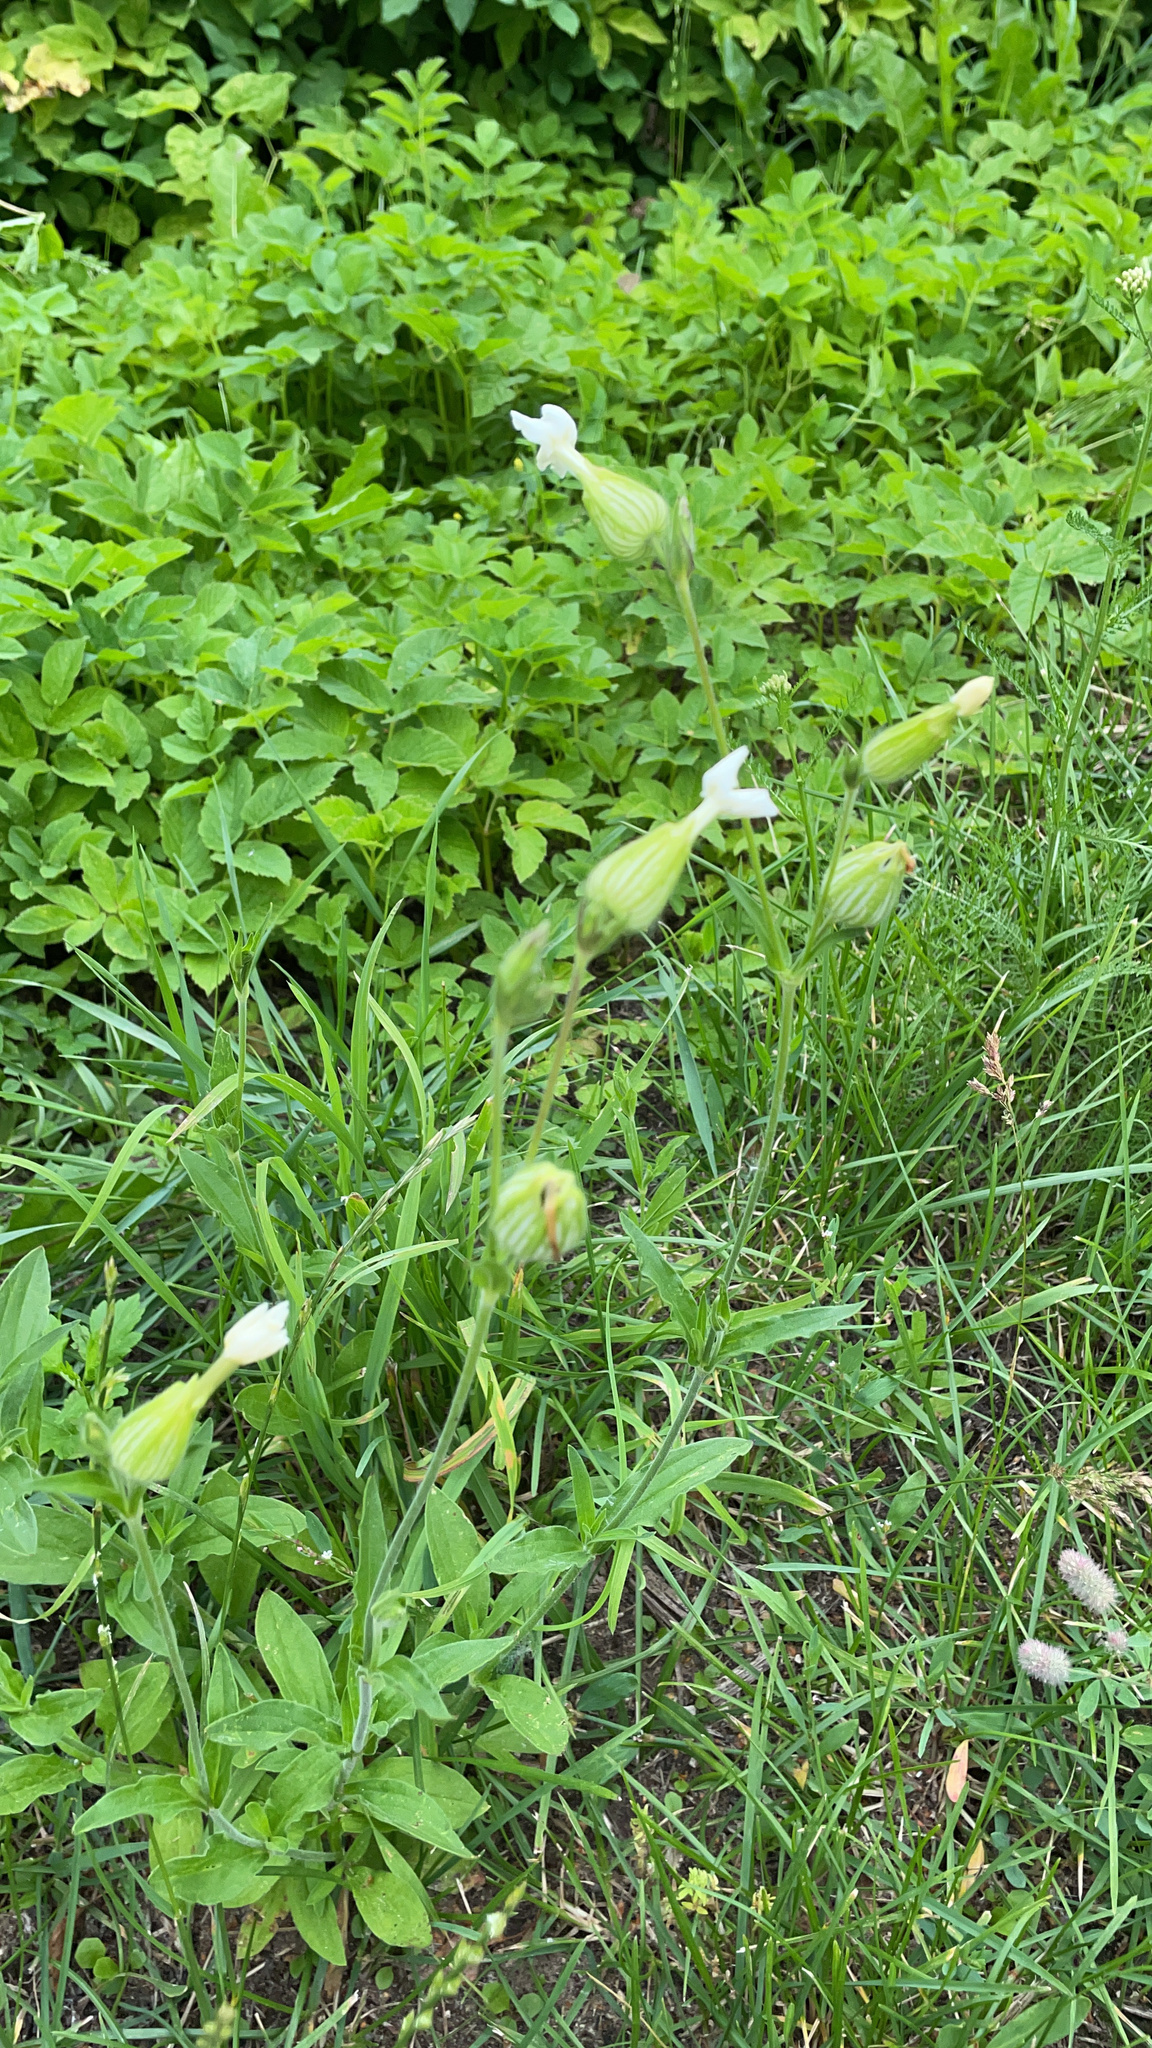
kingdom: Plantae
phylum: Tracheophyta
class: Magnoliopsida
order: Caryophyllales
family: Caryophyllaceae
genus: Silene
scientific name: Silene latifolia
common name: White campion
